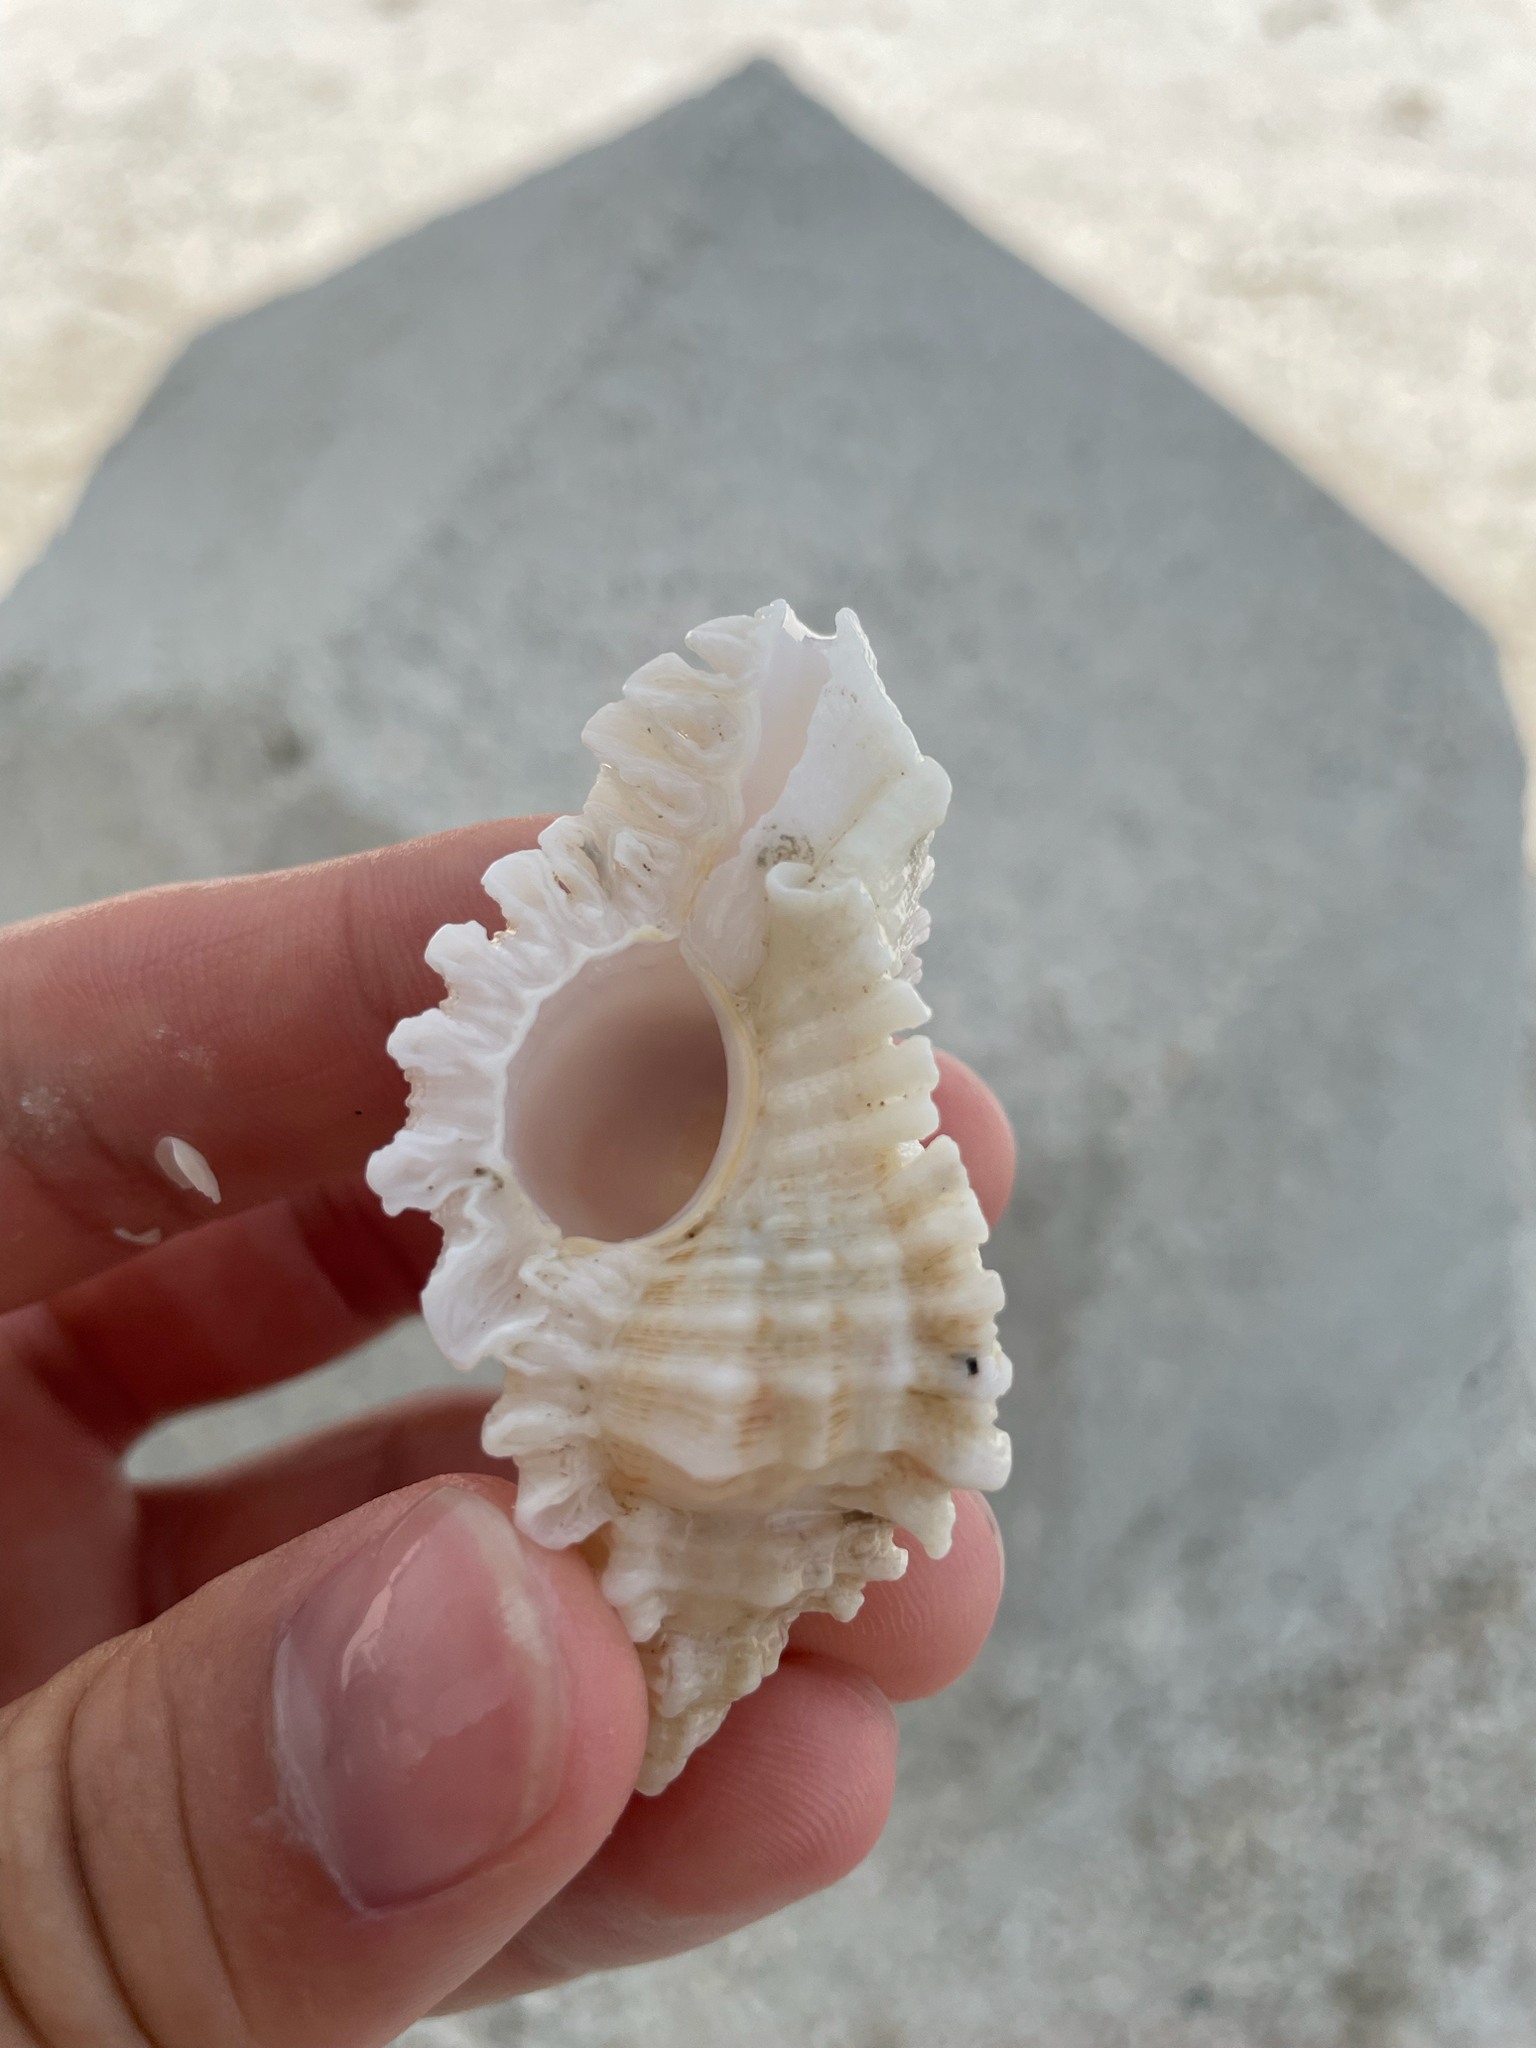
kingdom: Animalia
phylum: Mollusca
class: Gastropoda
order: Neogastropoda
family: Muricidae
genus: Chicoreus
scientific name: Chicoreus florifer
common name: Flowery lace murex
